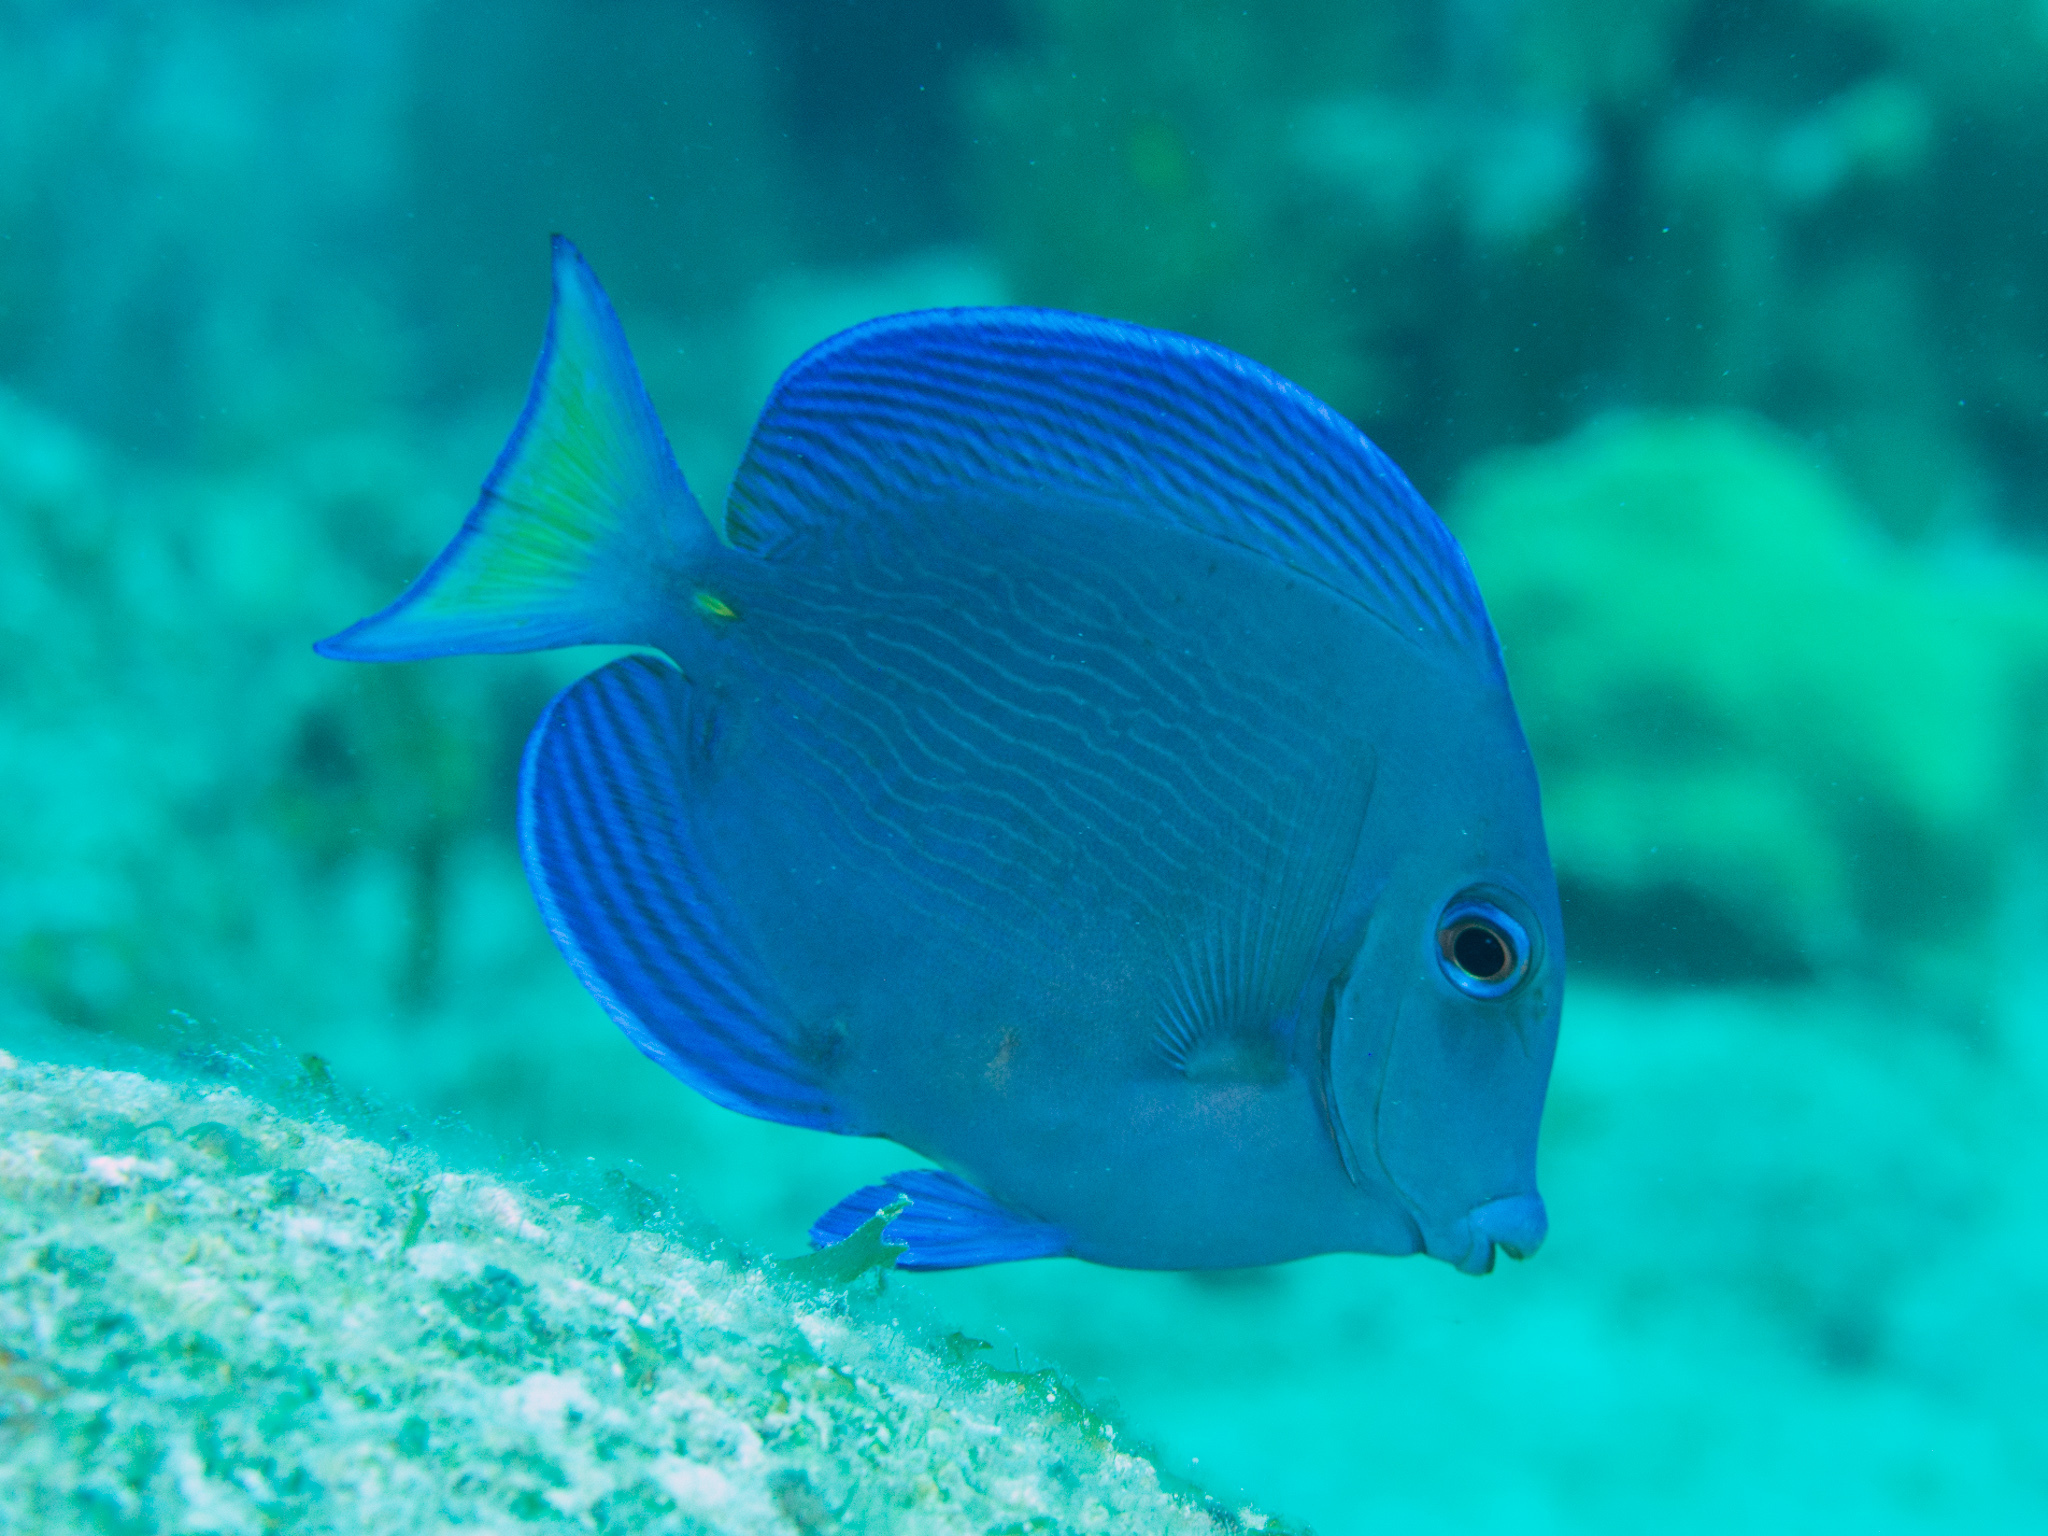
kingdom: Animalia
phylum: Chordata
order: Perciformes
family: Acanthuridae
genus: Acanthurus
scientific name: Acanthurus coeruleus
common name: Blue tang
